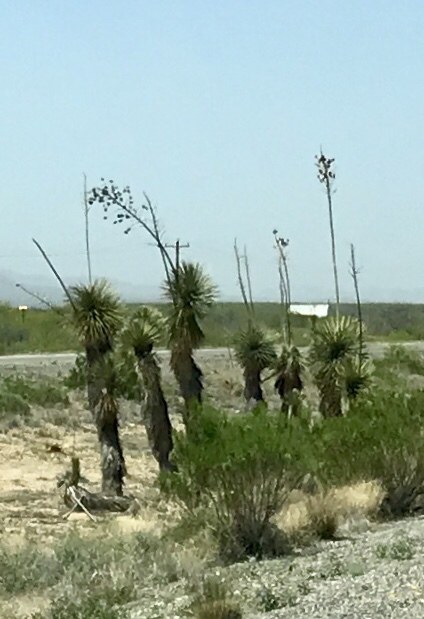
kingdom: Plantae
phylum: Tracheophyta
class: Liliopsida
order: Asparagales
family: Asparagaceae
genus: Yucca
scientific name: Yucca elata
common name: Palmella
